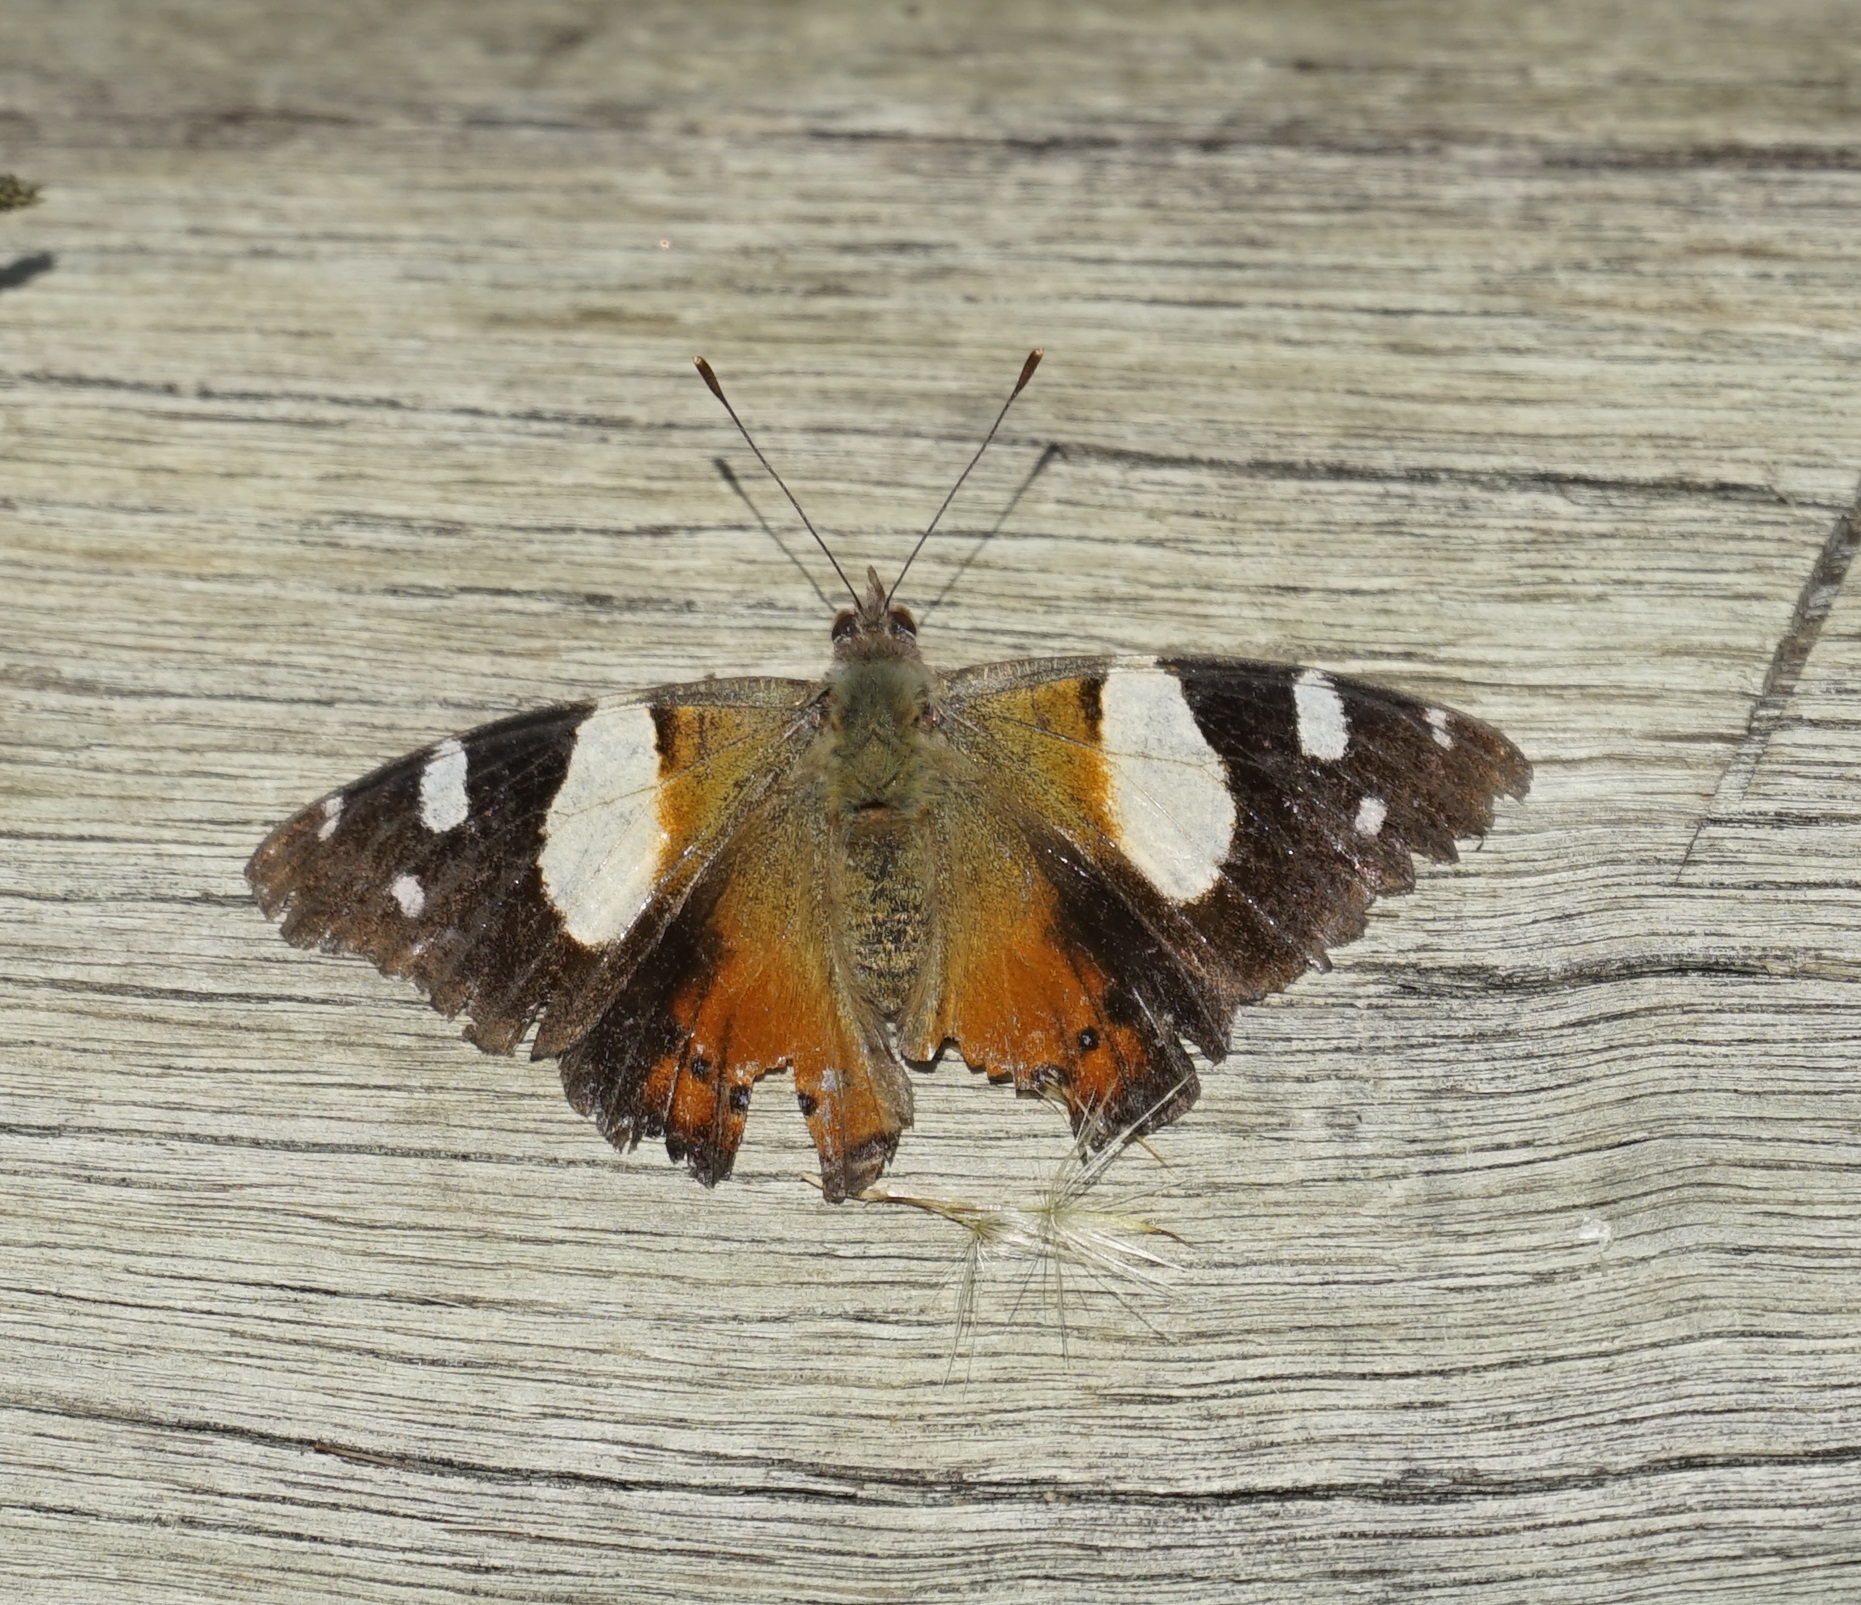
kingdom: Animalia
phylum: Arthropoda
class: Insecta
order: Lepidoptera
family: Nymphalidae
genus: Vanessa
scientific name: Vanessa itea
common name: Yellow admiral
